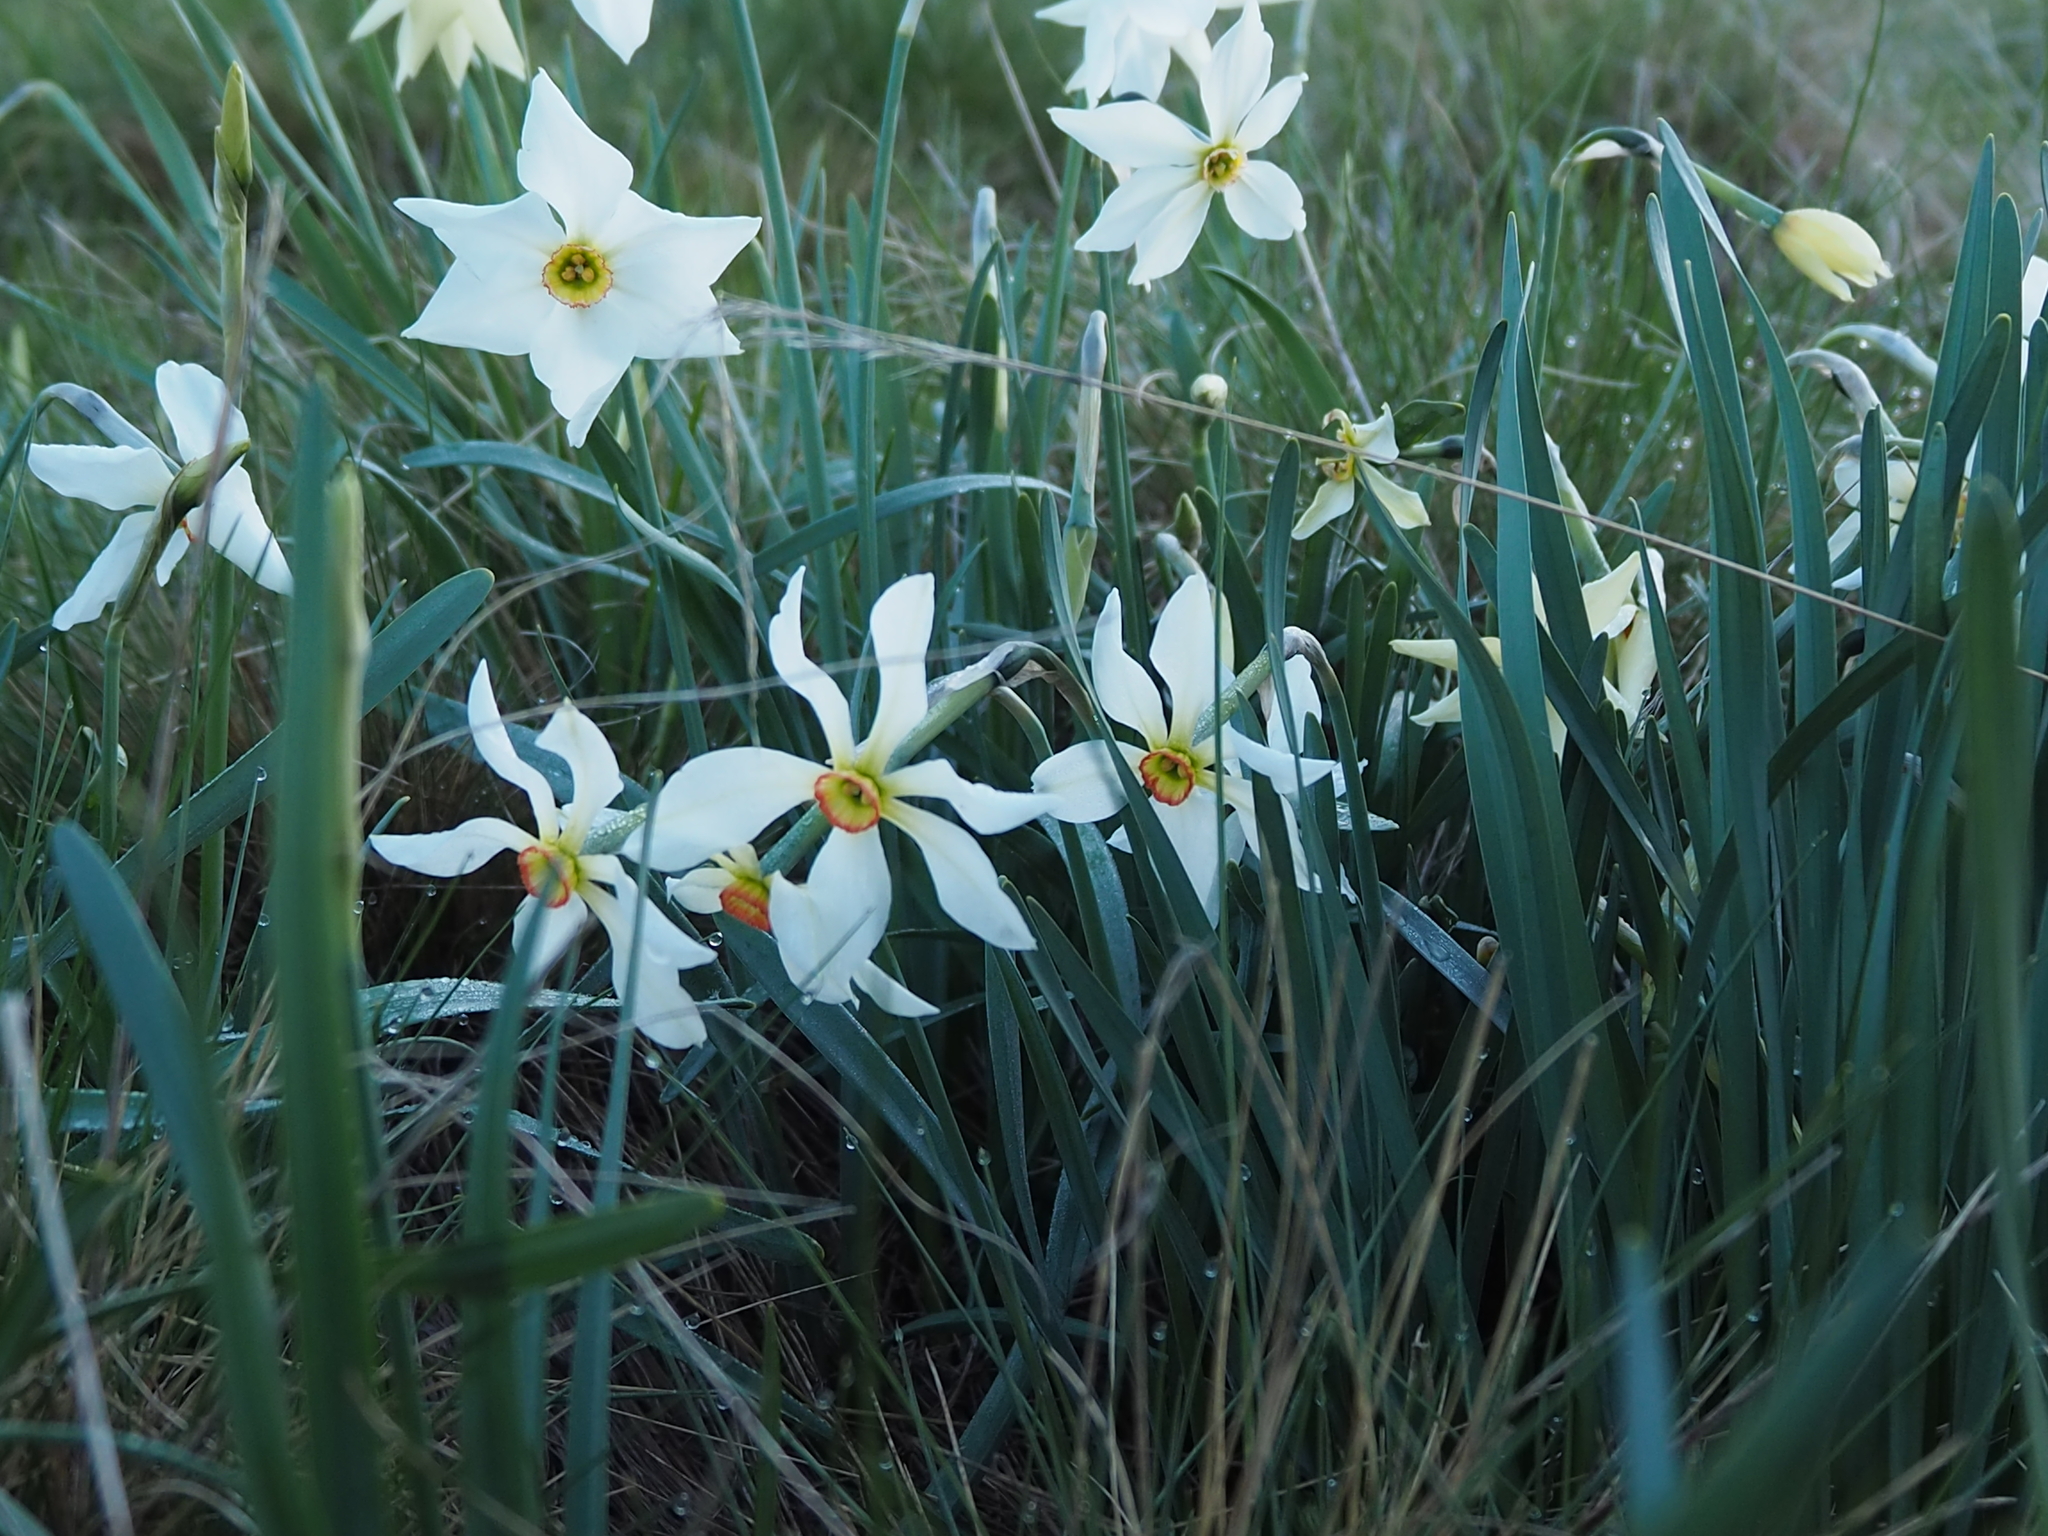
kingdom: Plantae
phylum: Tracheophyta
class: Liliopsida
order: Asparagales
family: Amaryllidaceae
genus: Narcissus
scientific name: Narcissus poeticus
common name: Pheasant's-eye daffodil
